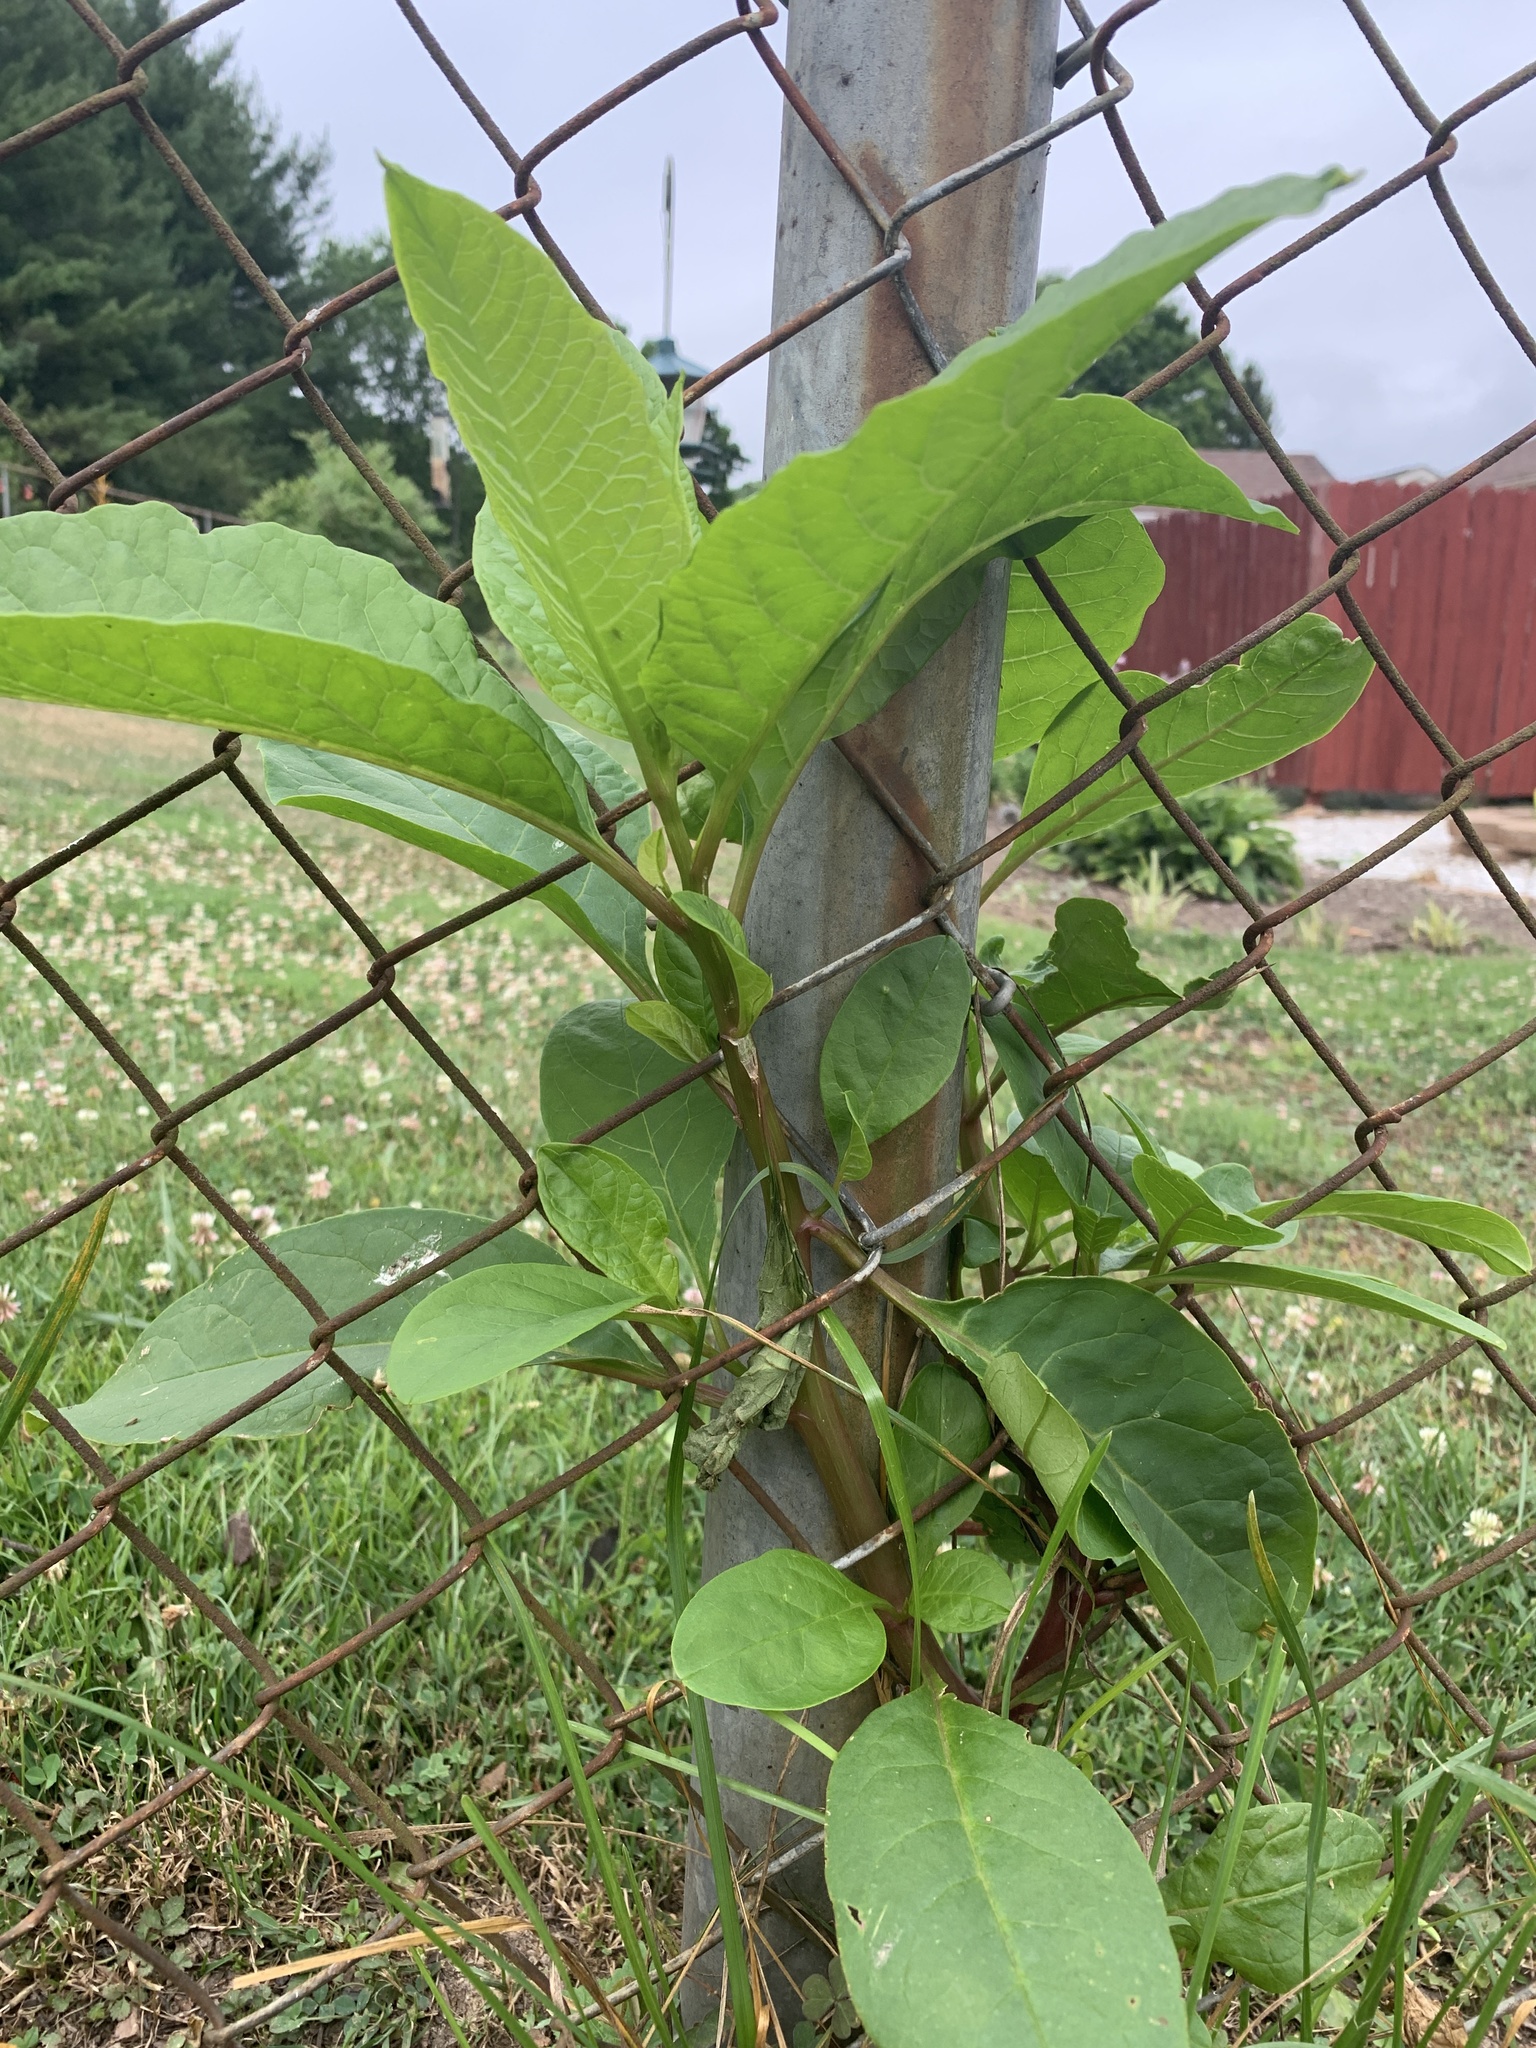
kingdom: Plantae
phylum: Tracheophyta
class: Magnoliopsida
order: Caryophyllales
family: Phytolaccaceae
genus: Phytolacca
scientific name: Phytolacca americana
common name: American pokeweed
